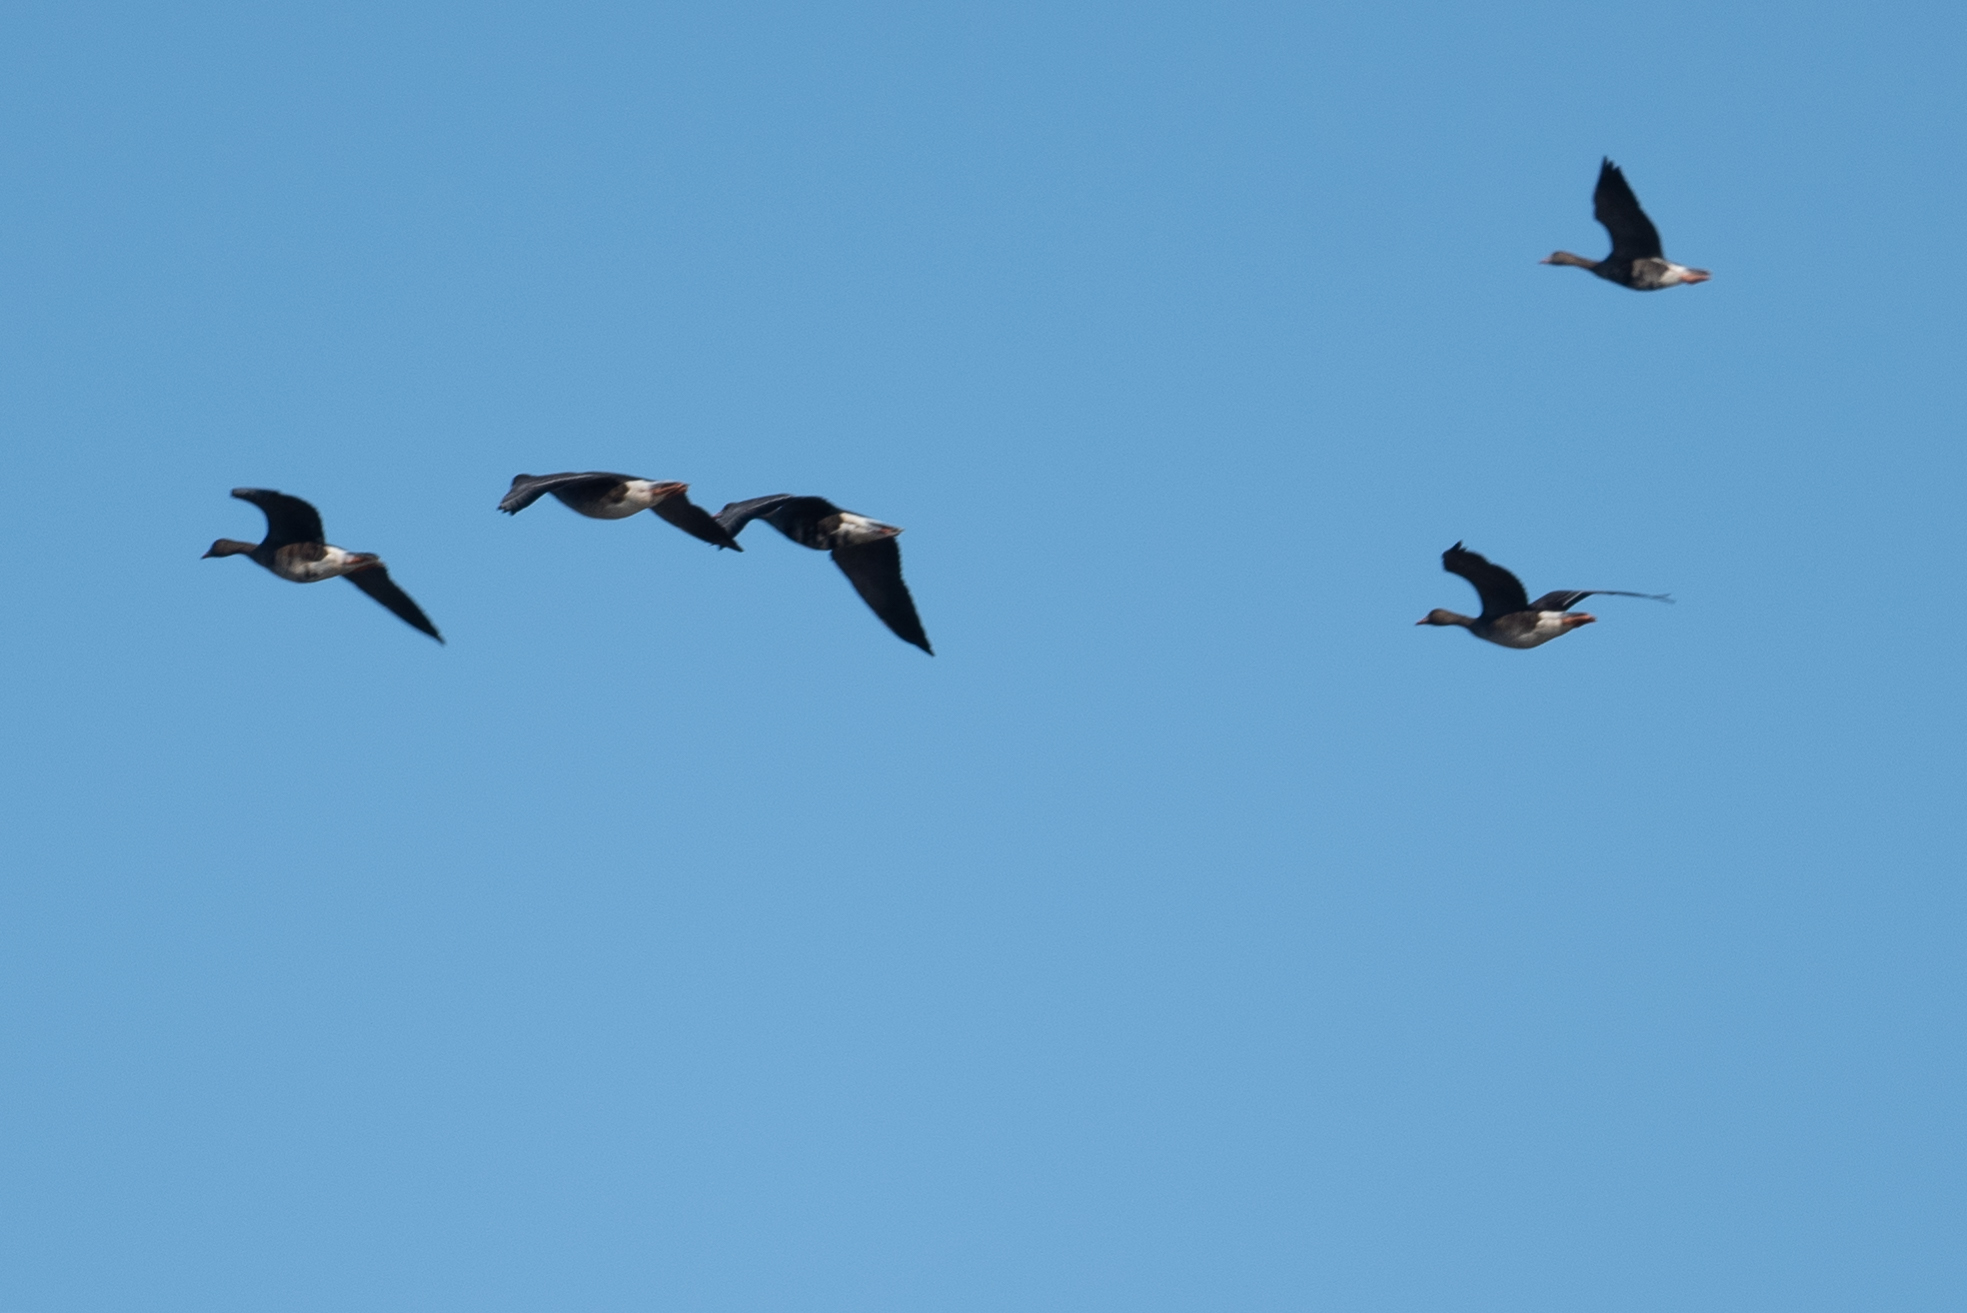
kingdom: Animalia
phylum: Chordata
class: Aves
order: Anseriformes
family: Anatidae
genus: Anser
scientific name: Anser albifrons
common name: Greater white-fronted goose
